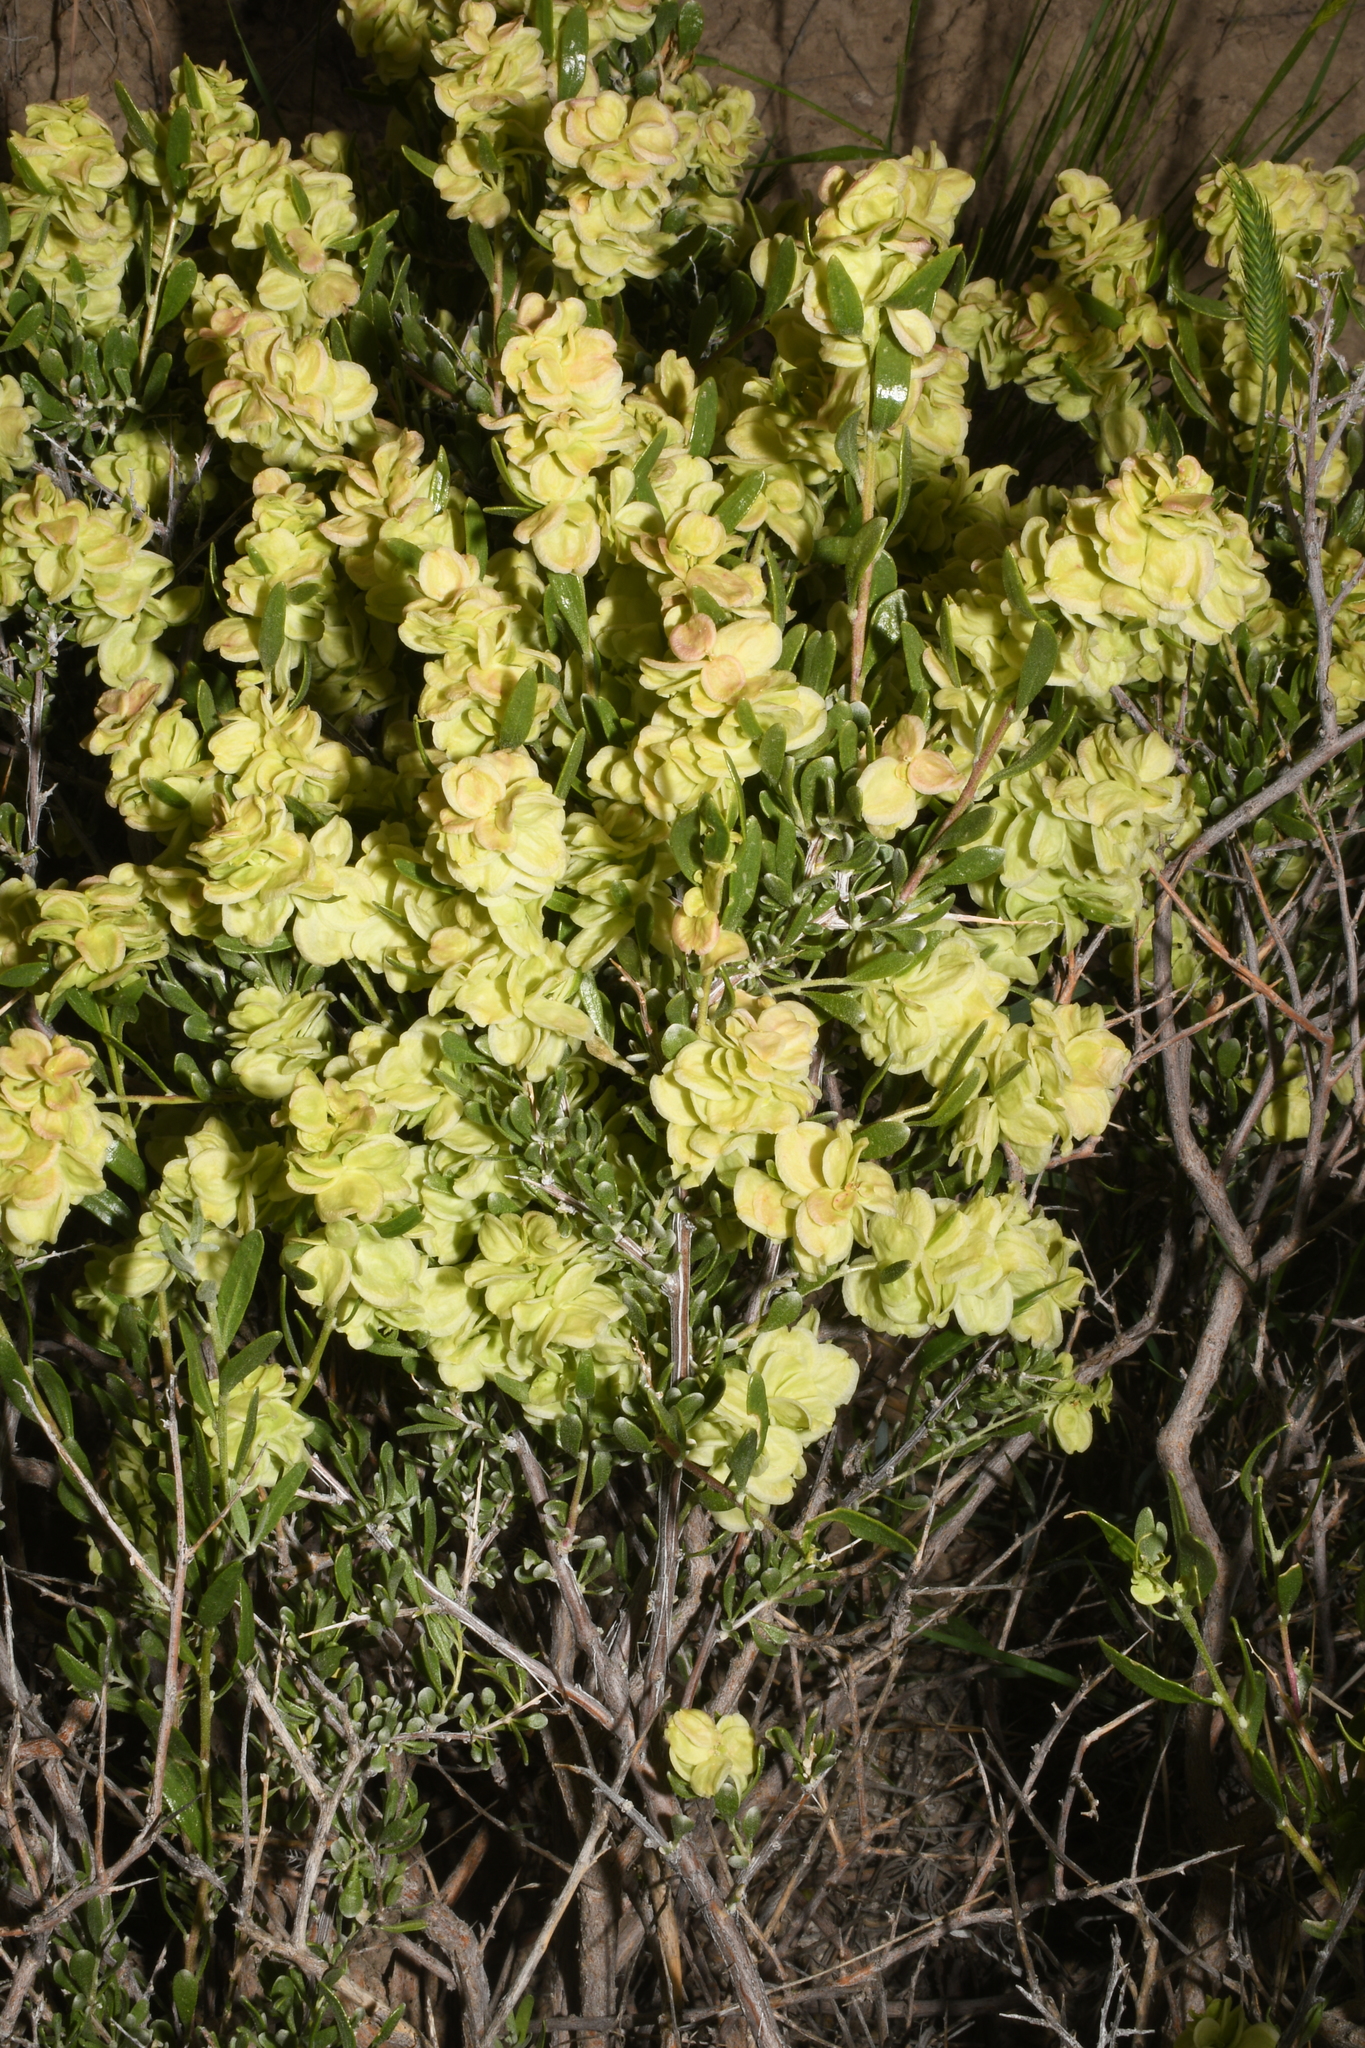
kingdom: Plantae
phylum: Tracheophyta
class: Magnoliopsida
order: Caryophyllales
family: Amaranthaceae
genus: Grayia
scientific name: Grayia spinosa
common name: Spiny hopsage
